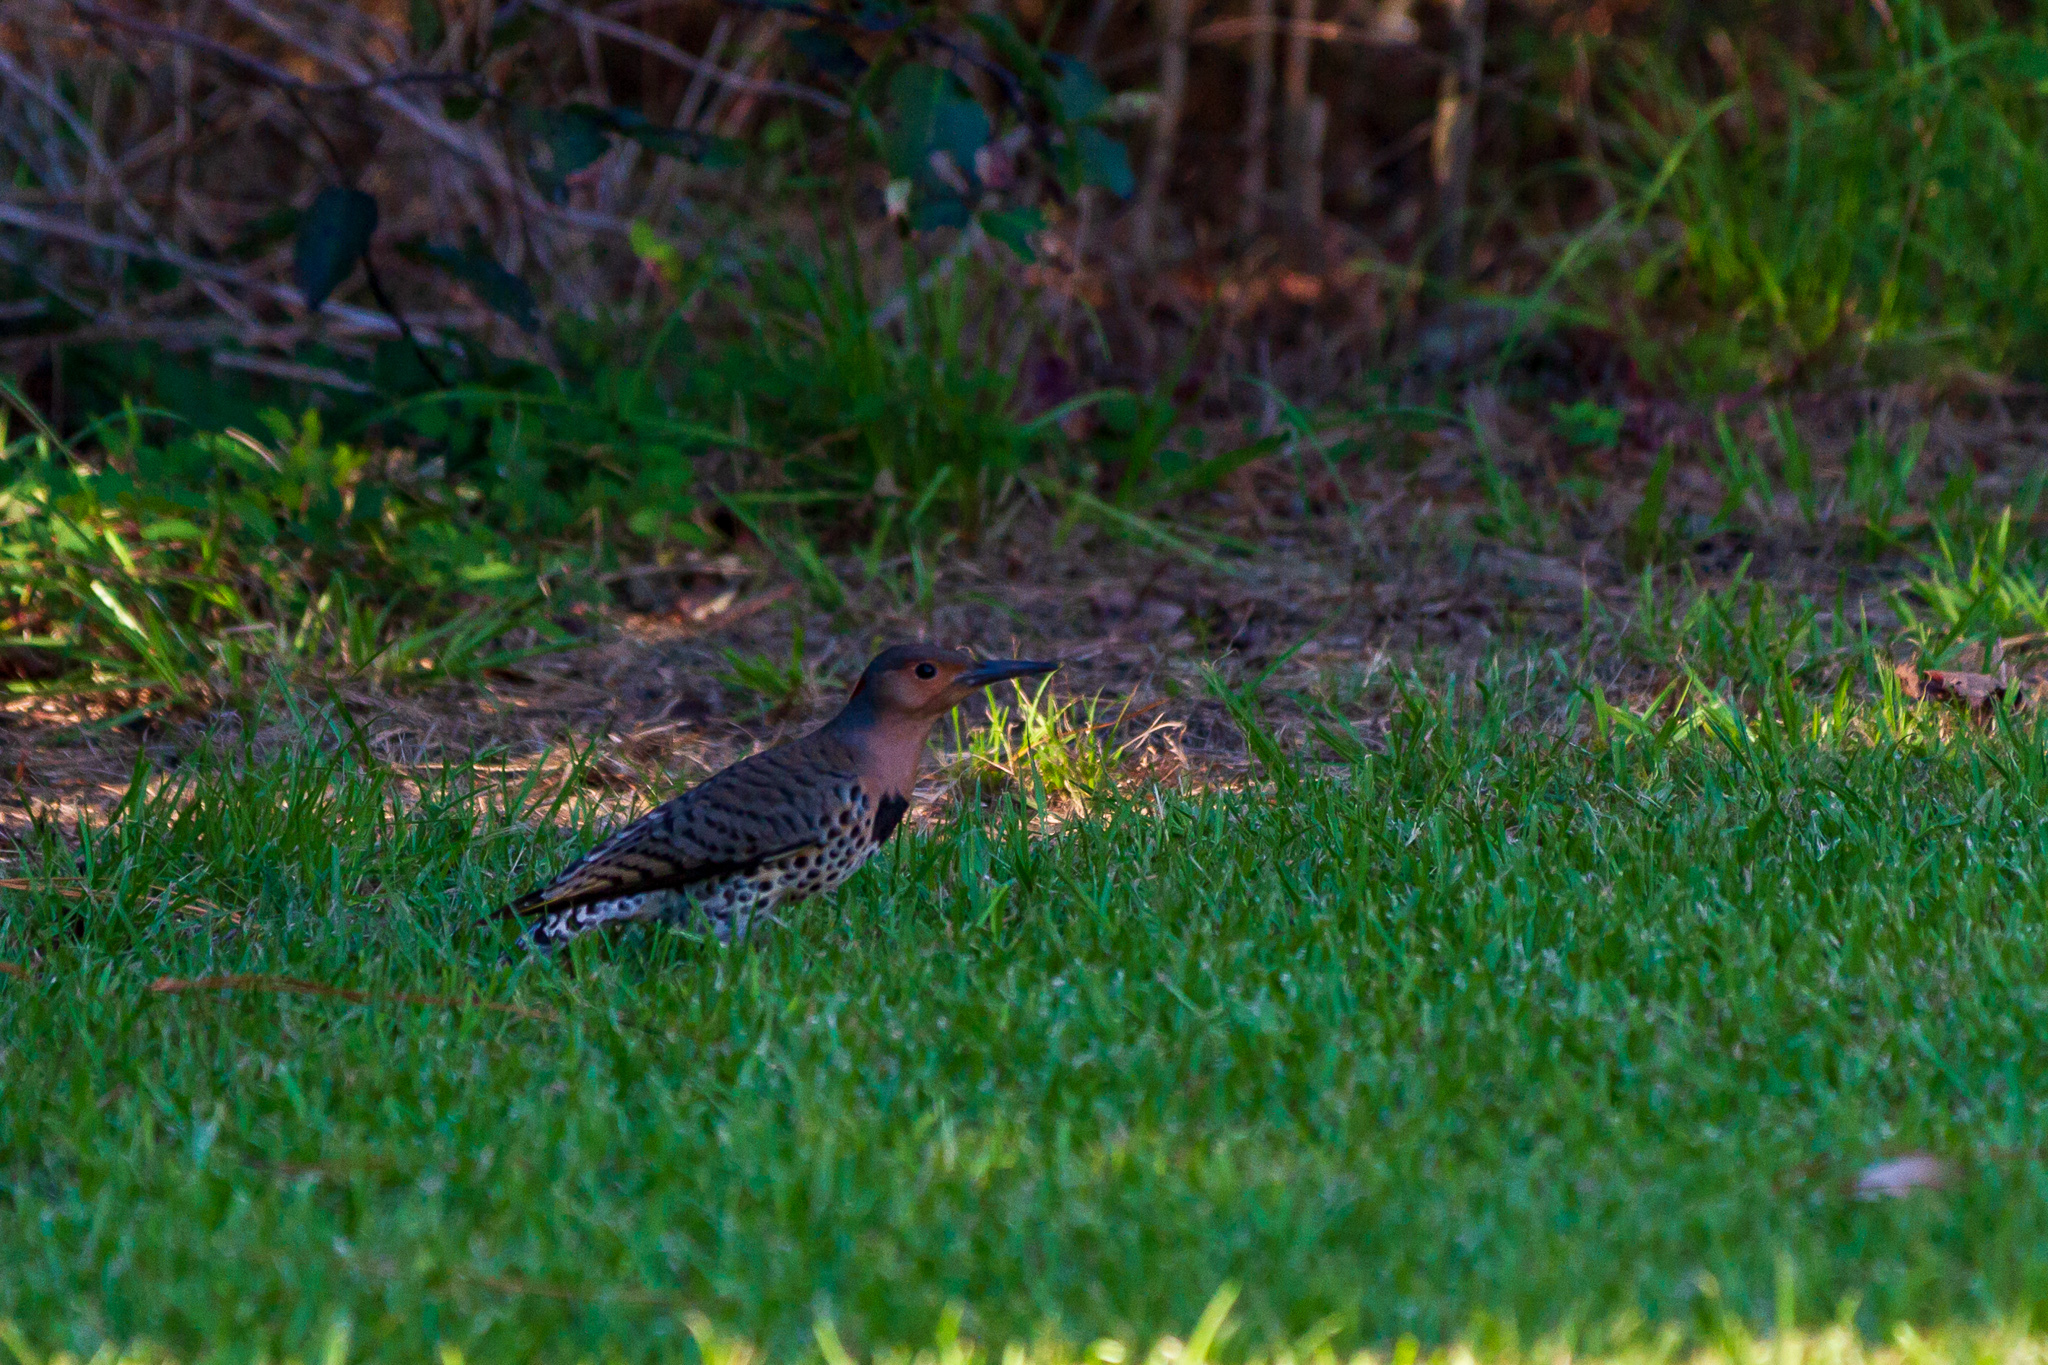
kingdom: Animalia
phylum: Chordata
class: Aves
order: Piciformes
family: Picidae
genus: Colaptes
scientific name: Colaptes auratus
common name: Northern flicker
